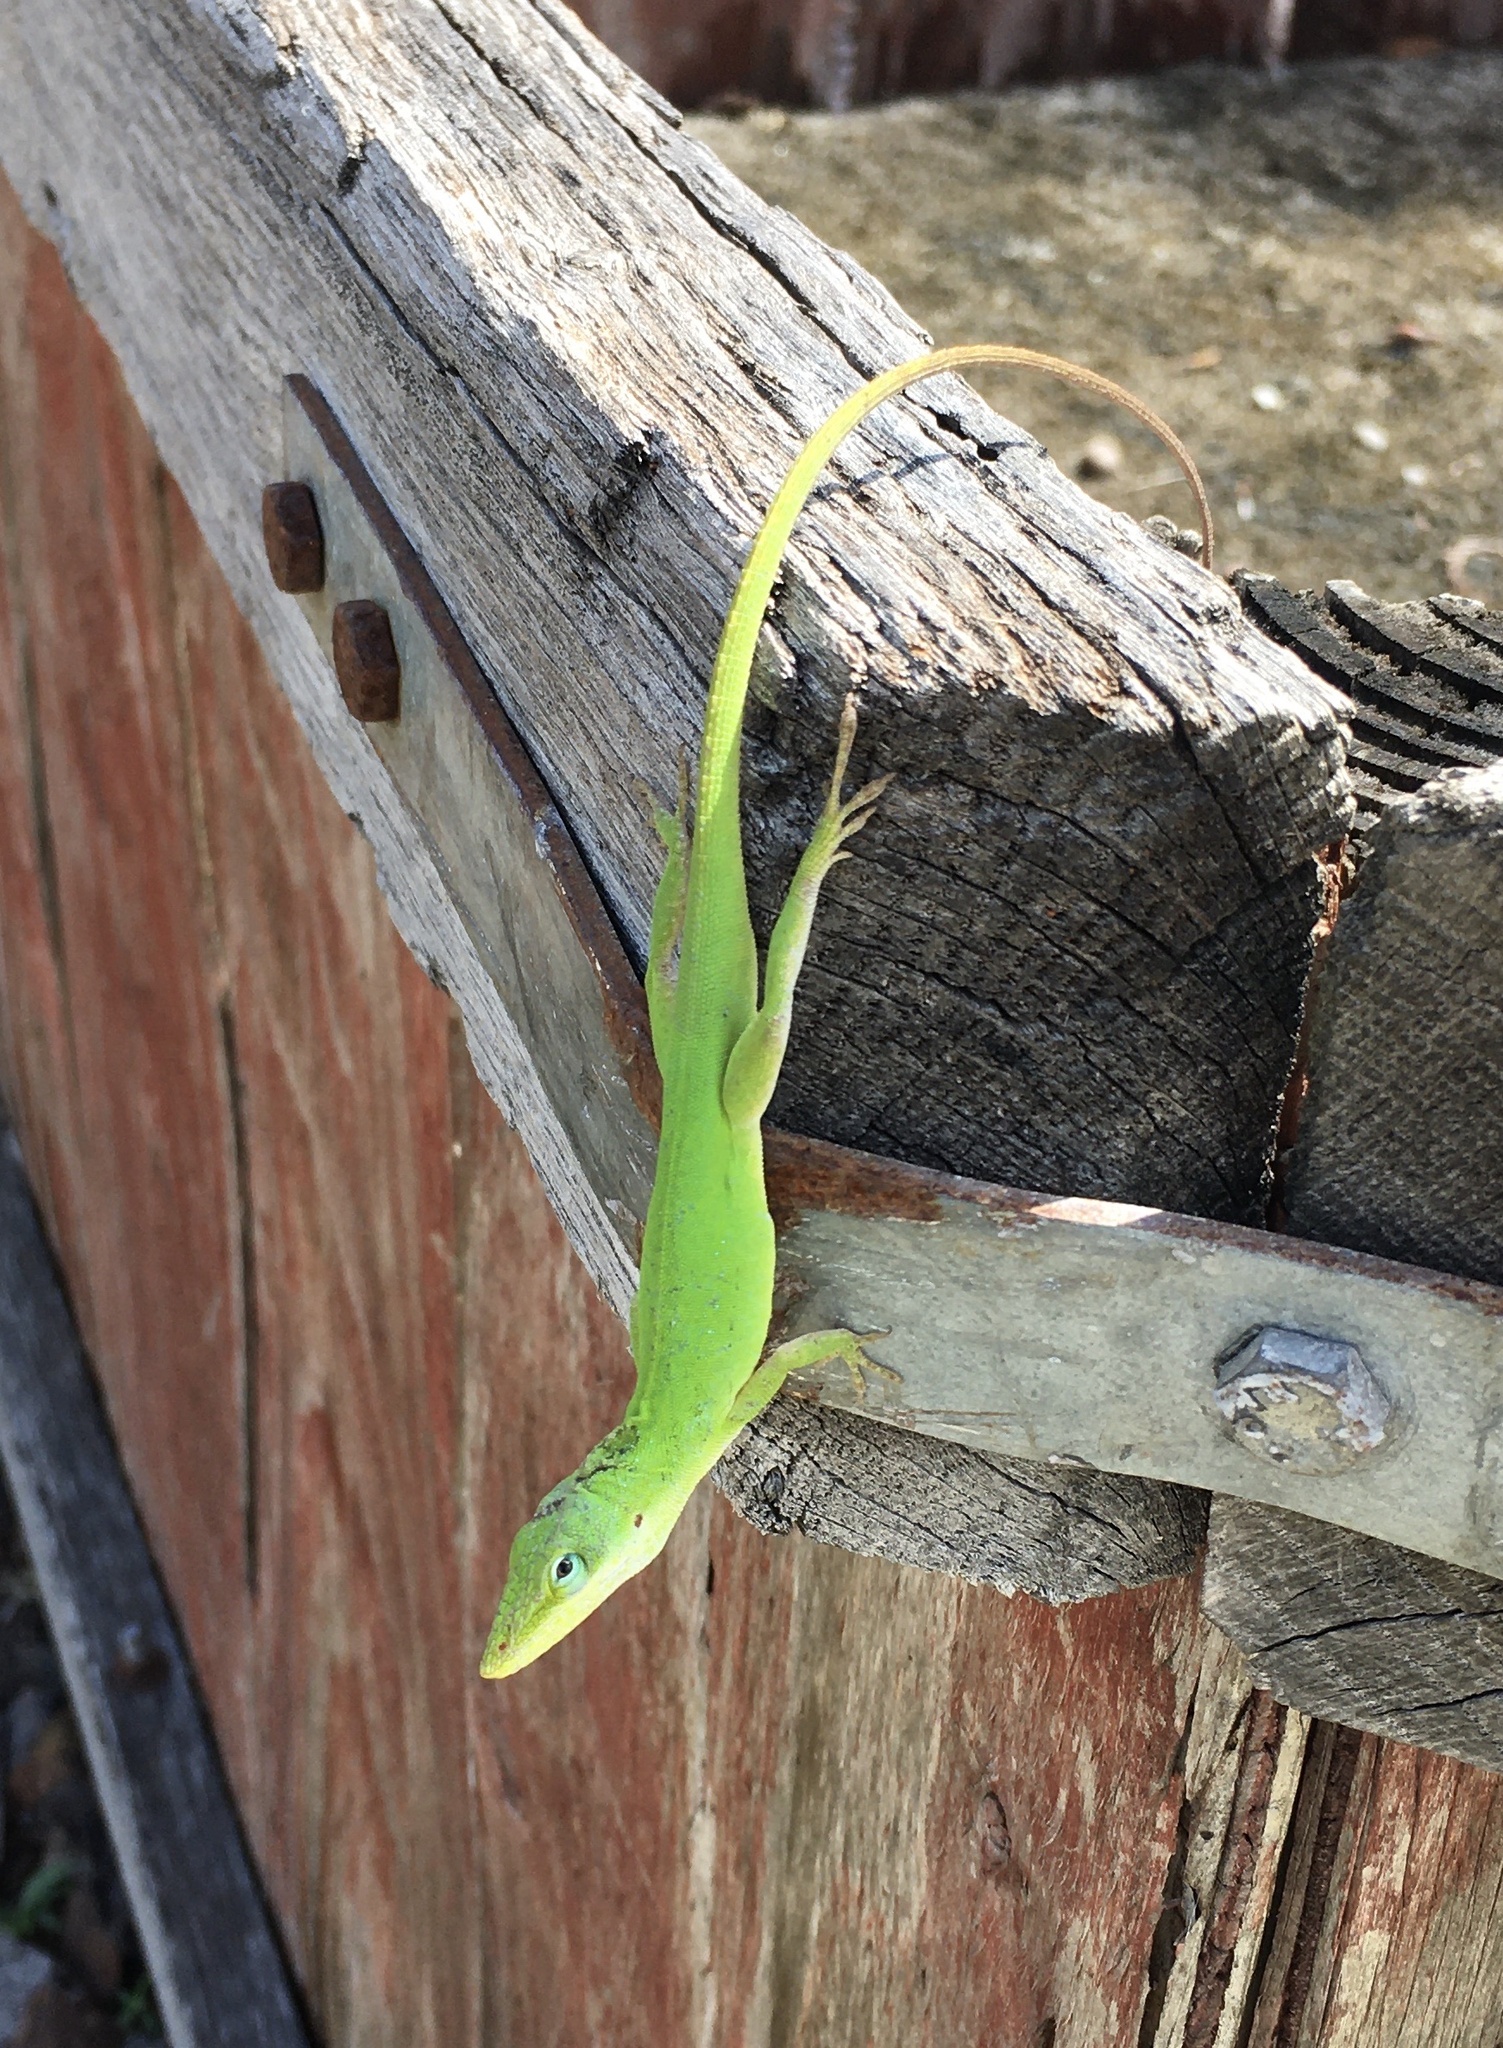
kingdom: Animalia
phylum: Chordata
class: Squamata
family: Dactyloidae
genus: Anolis
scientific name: Anolis carolinensis
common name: Green anole
